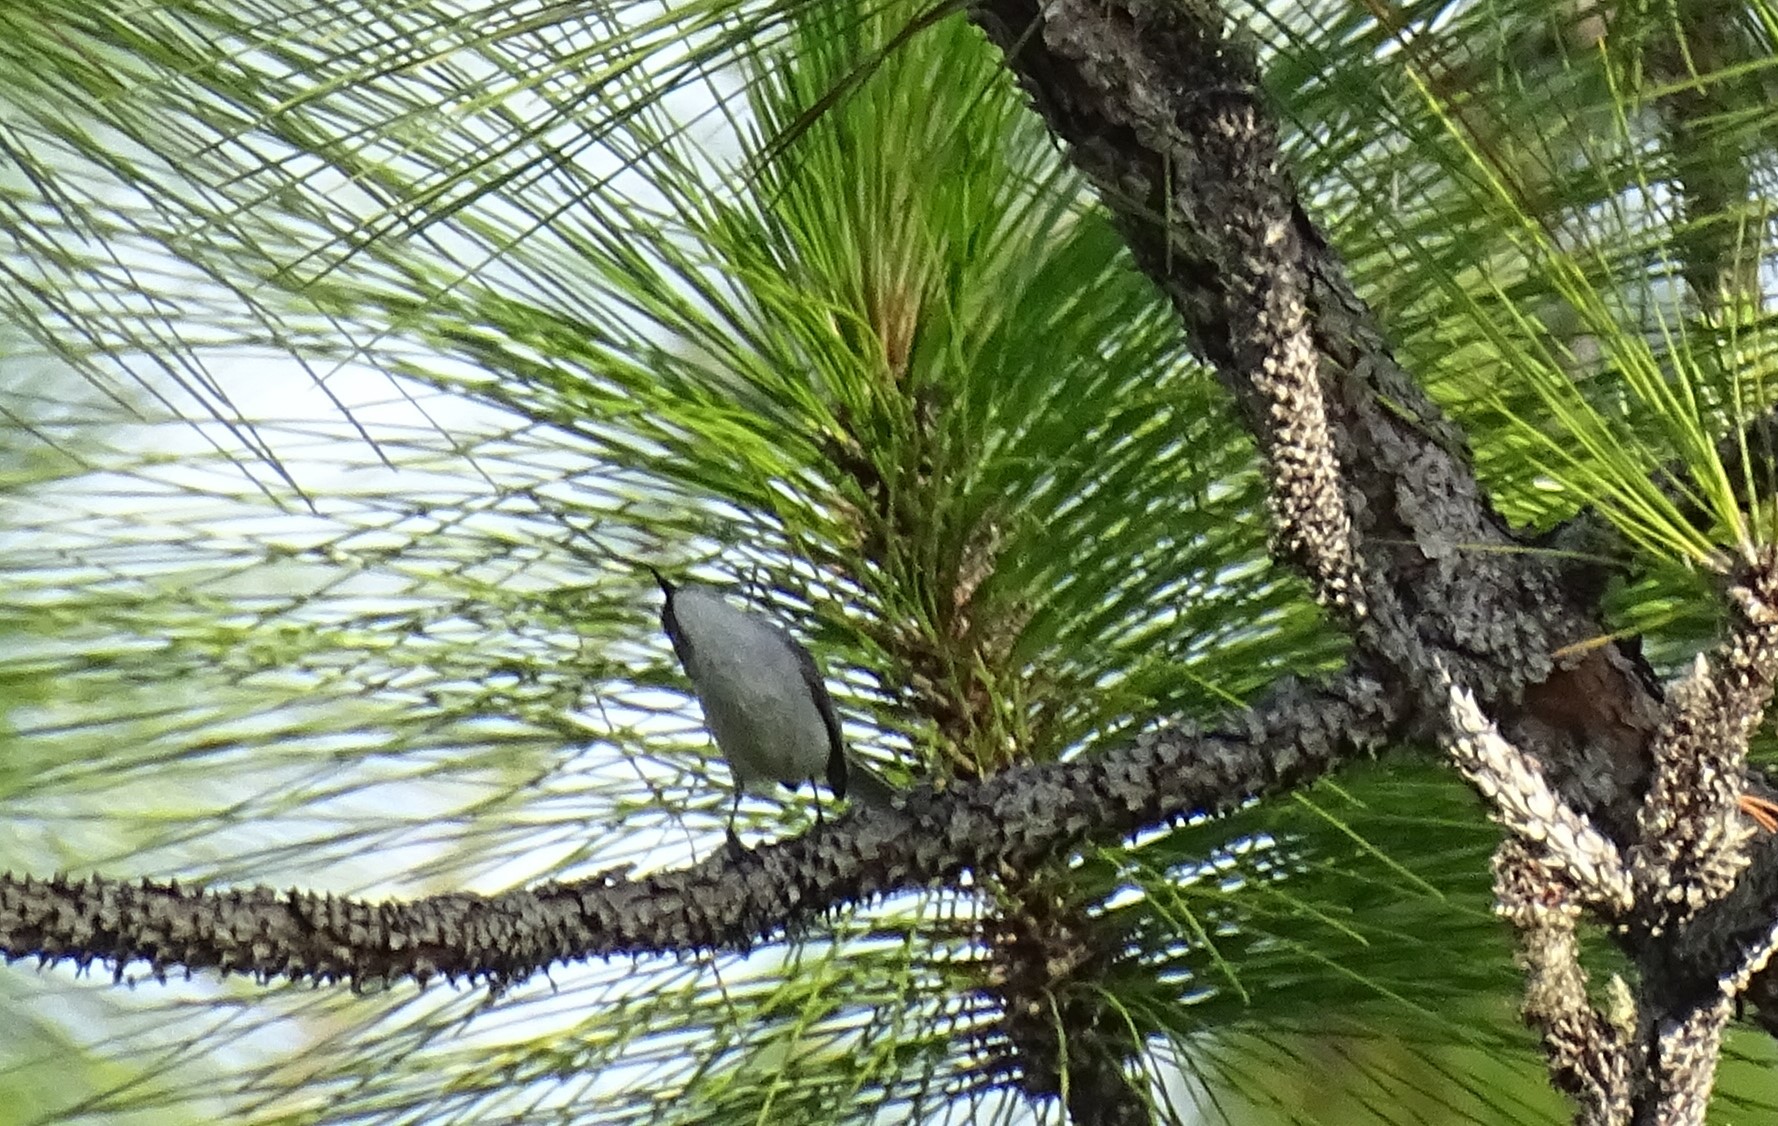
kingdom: Animalia
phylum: Chordata
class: Aves
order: Passeriformes
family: Polioptilidae
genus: Polioptila
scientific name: Polioptila caerulea
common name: Blue-gray gnatcatcher
